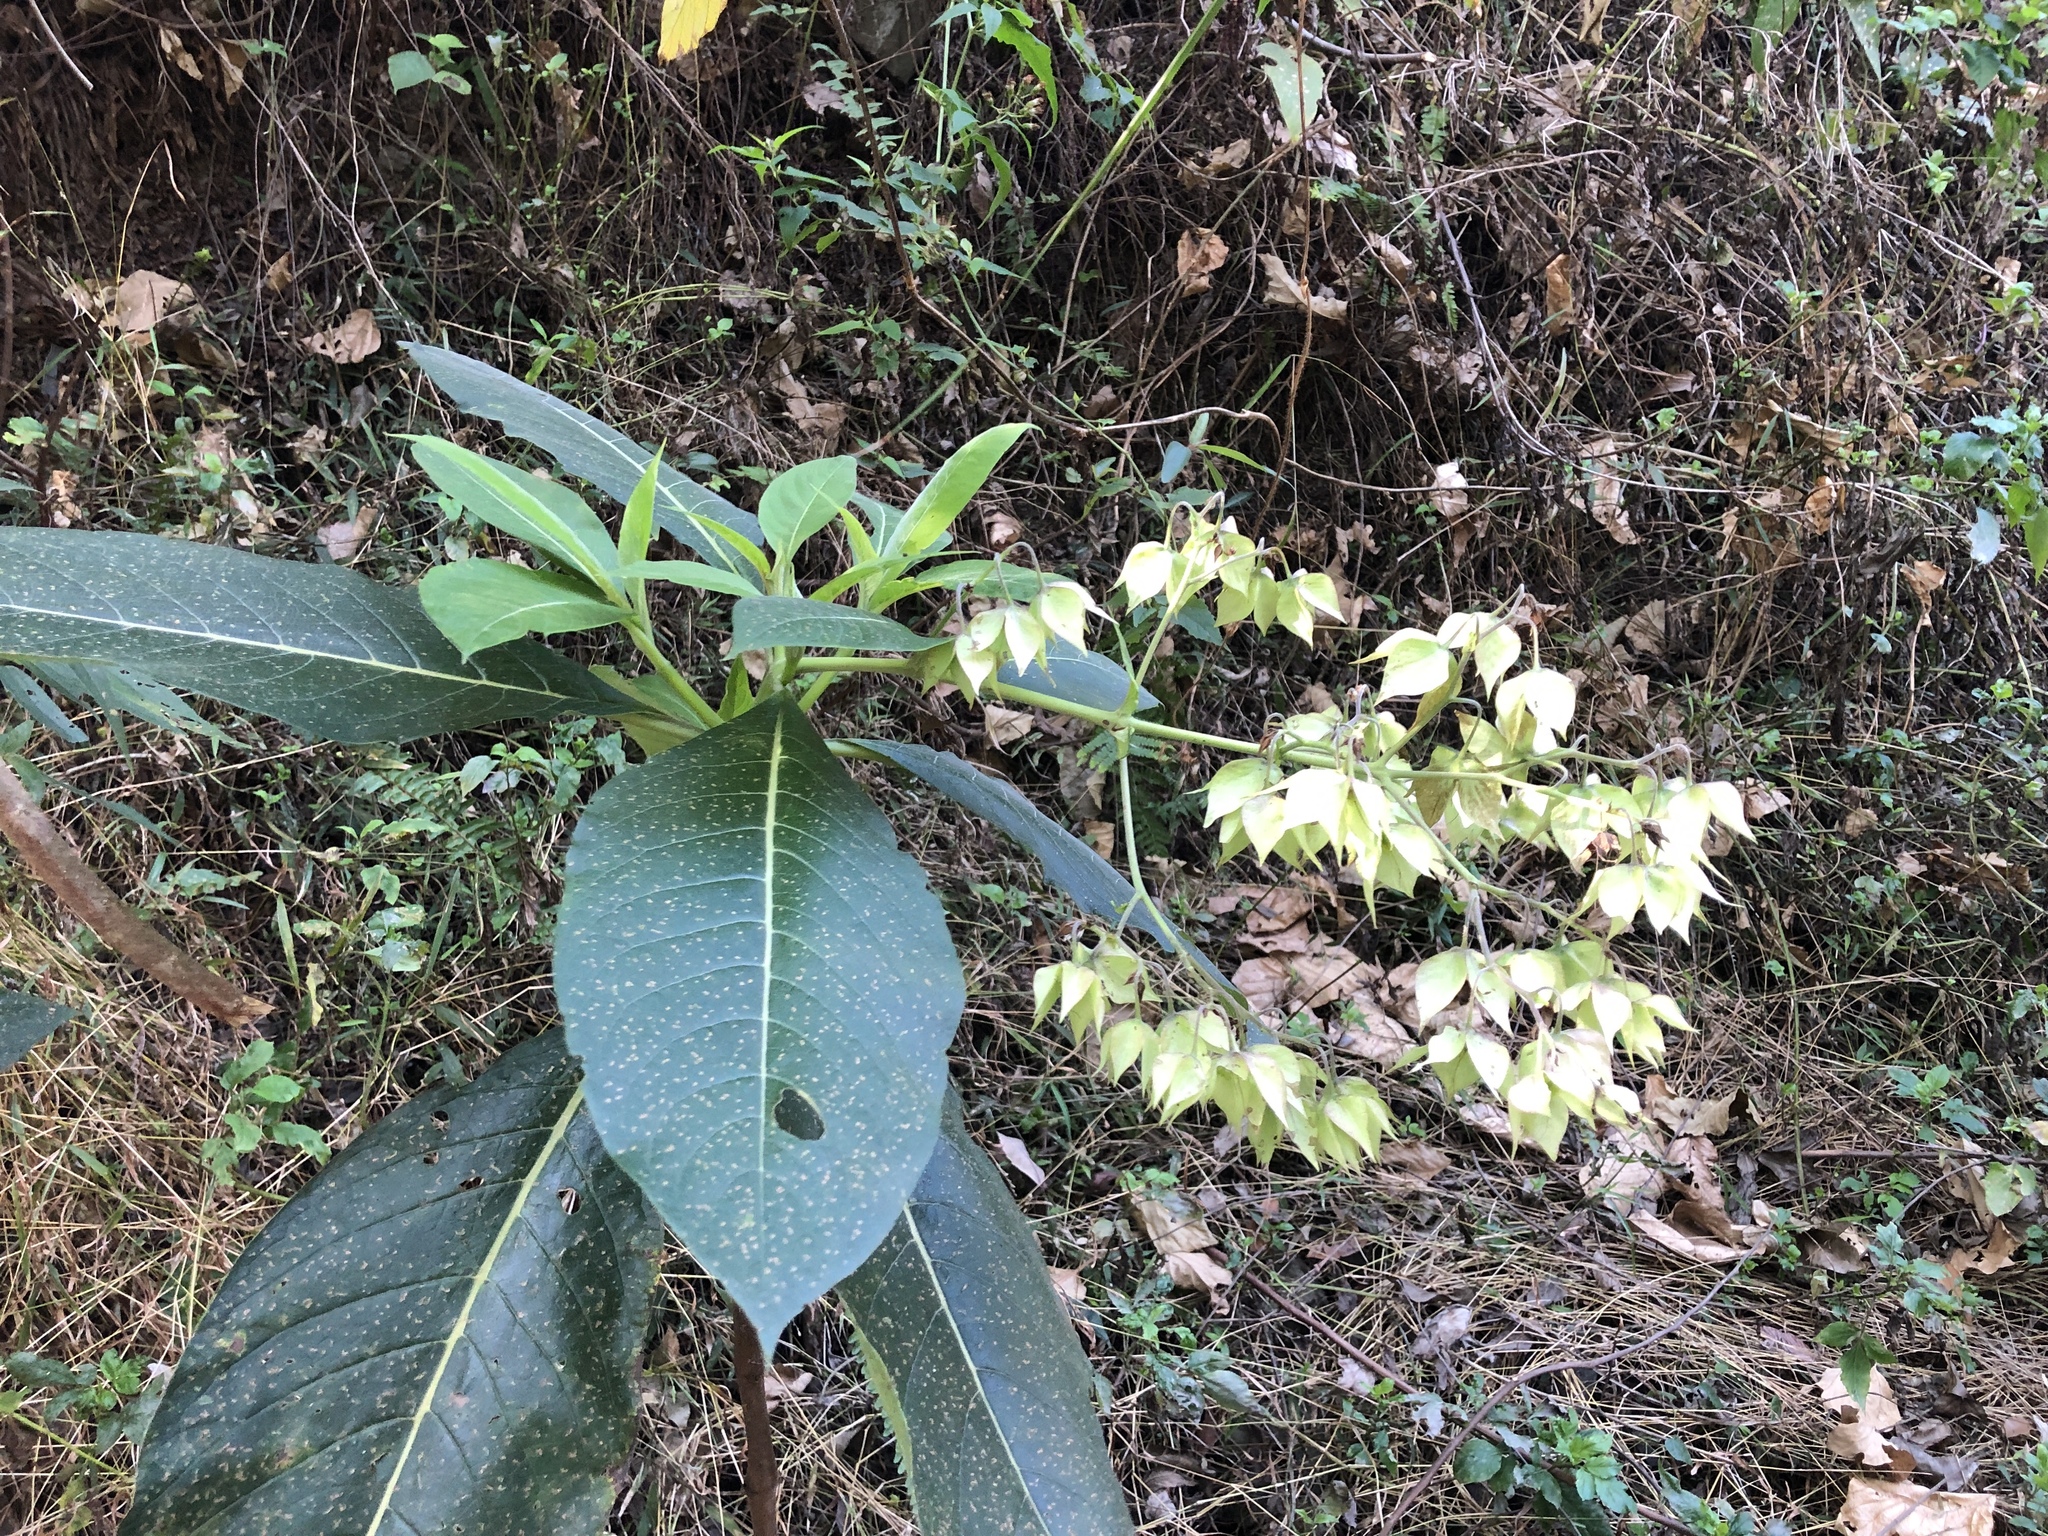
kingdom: Plantae
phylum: Tracheophyta
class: Magnoliopsida
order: Boraginales
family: Boraginaceae
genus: Trichodesma
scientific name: Trichodesma calycosum
